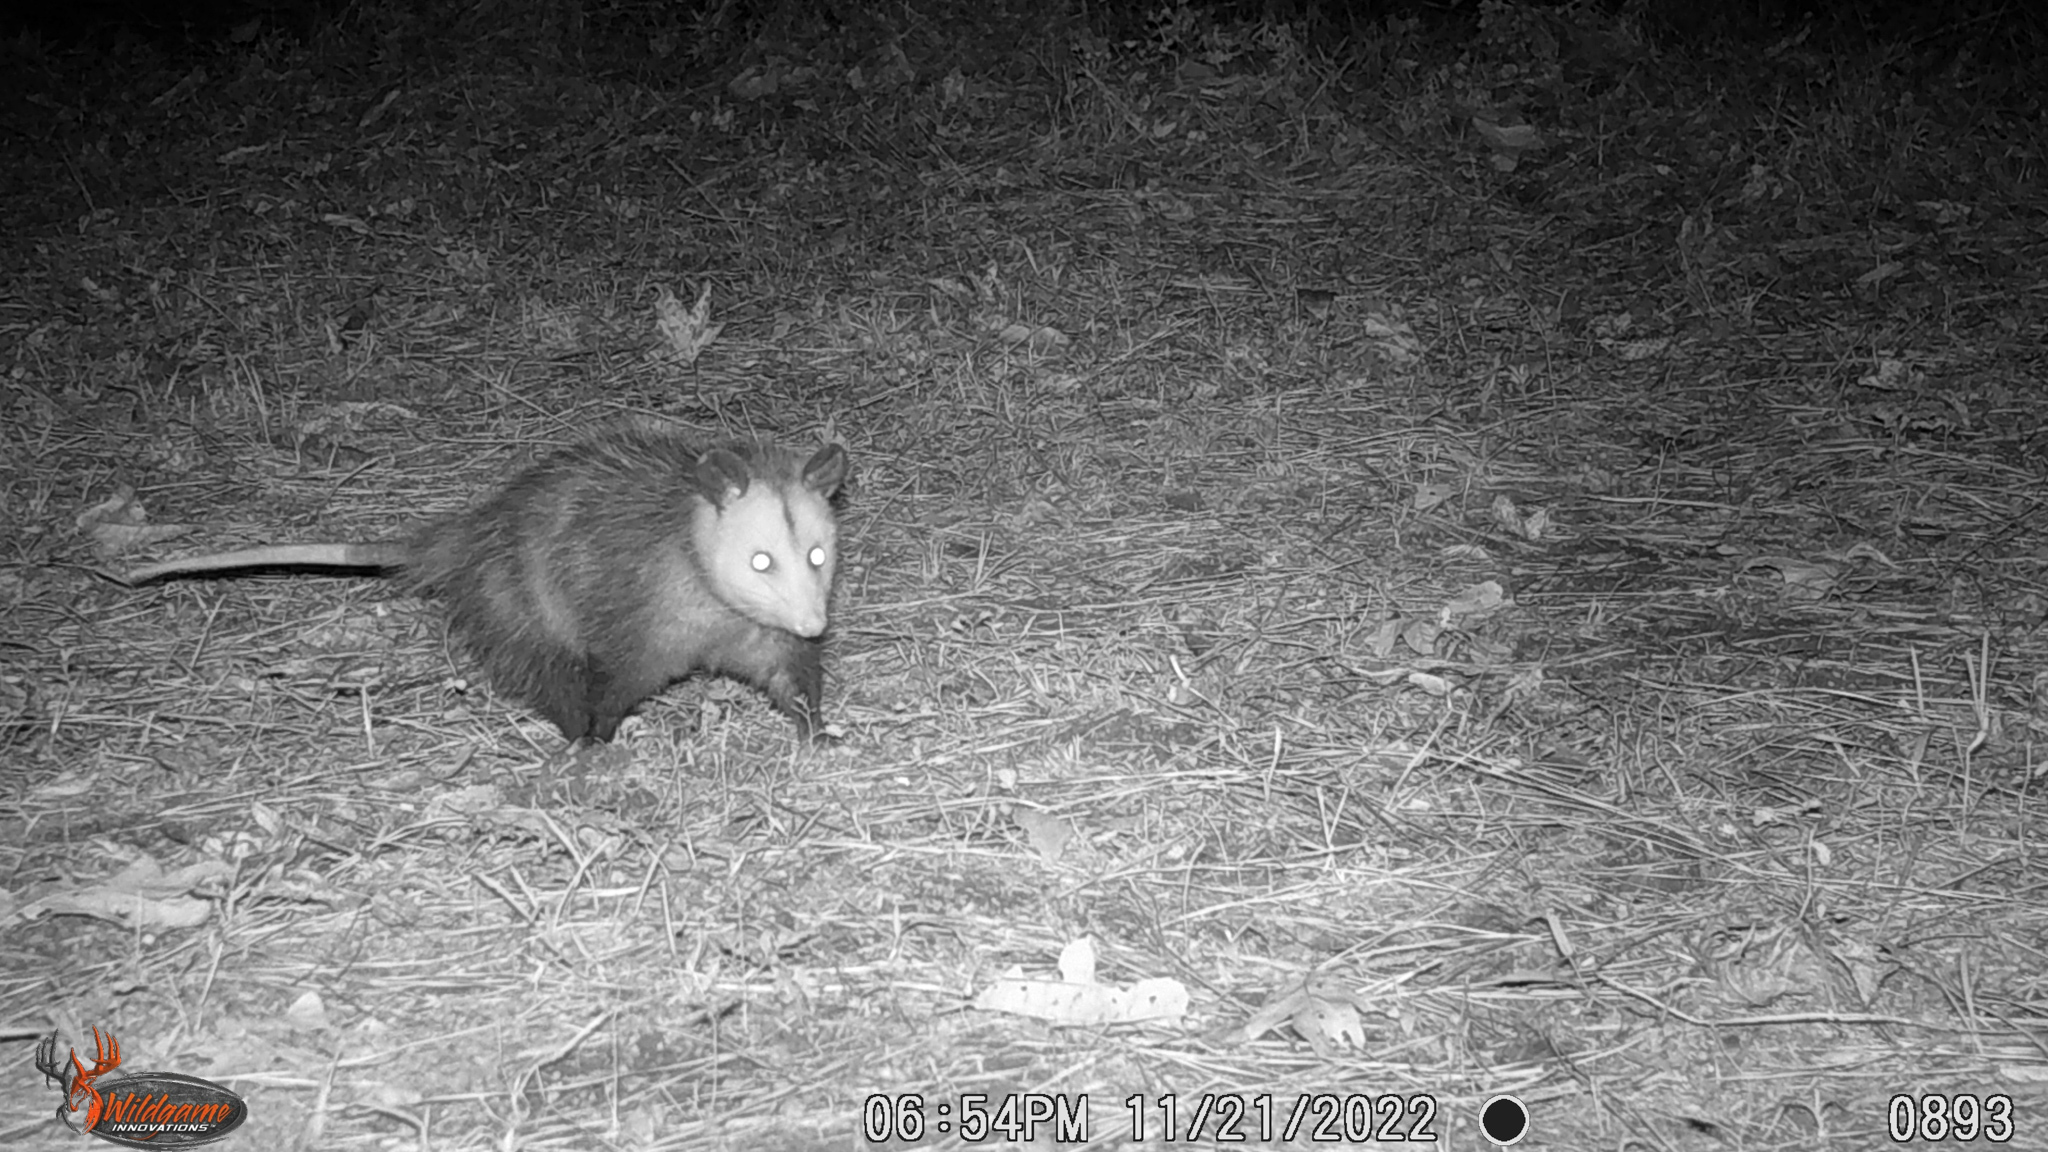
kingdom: Animalia
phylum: Chordata
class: Mammalia
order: Didelphimorphia
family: Didelphidae
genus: Didelphis
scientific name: Didelphis virginiana
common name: Virginia opossum
